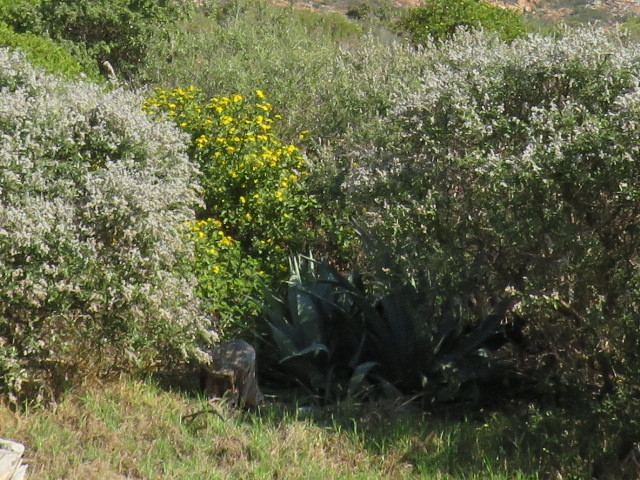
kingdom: Plantae
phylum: Tracheophyta
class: Magnoliopsida
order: Asterales
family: Asteraceae
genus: Osteospermum
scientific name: Osteospermum moniliferum
